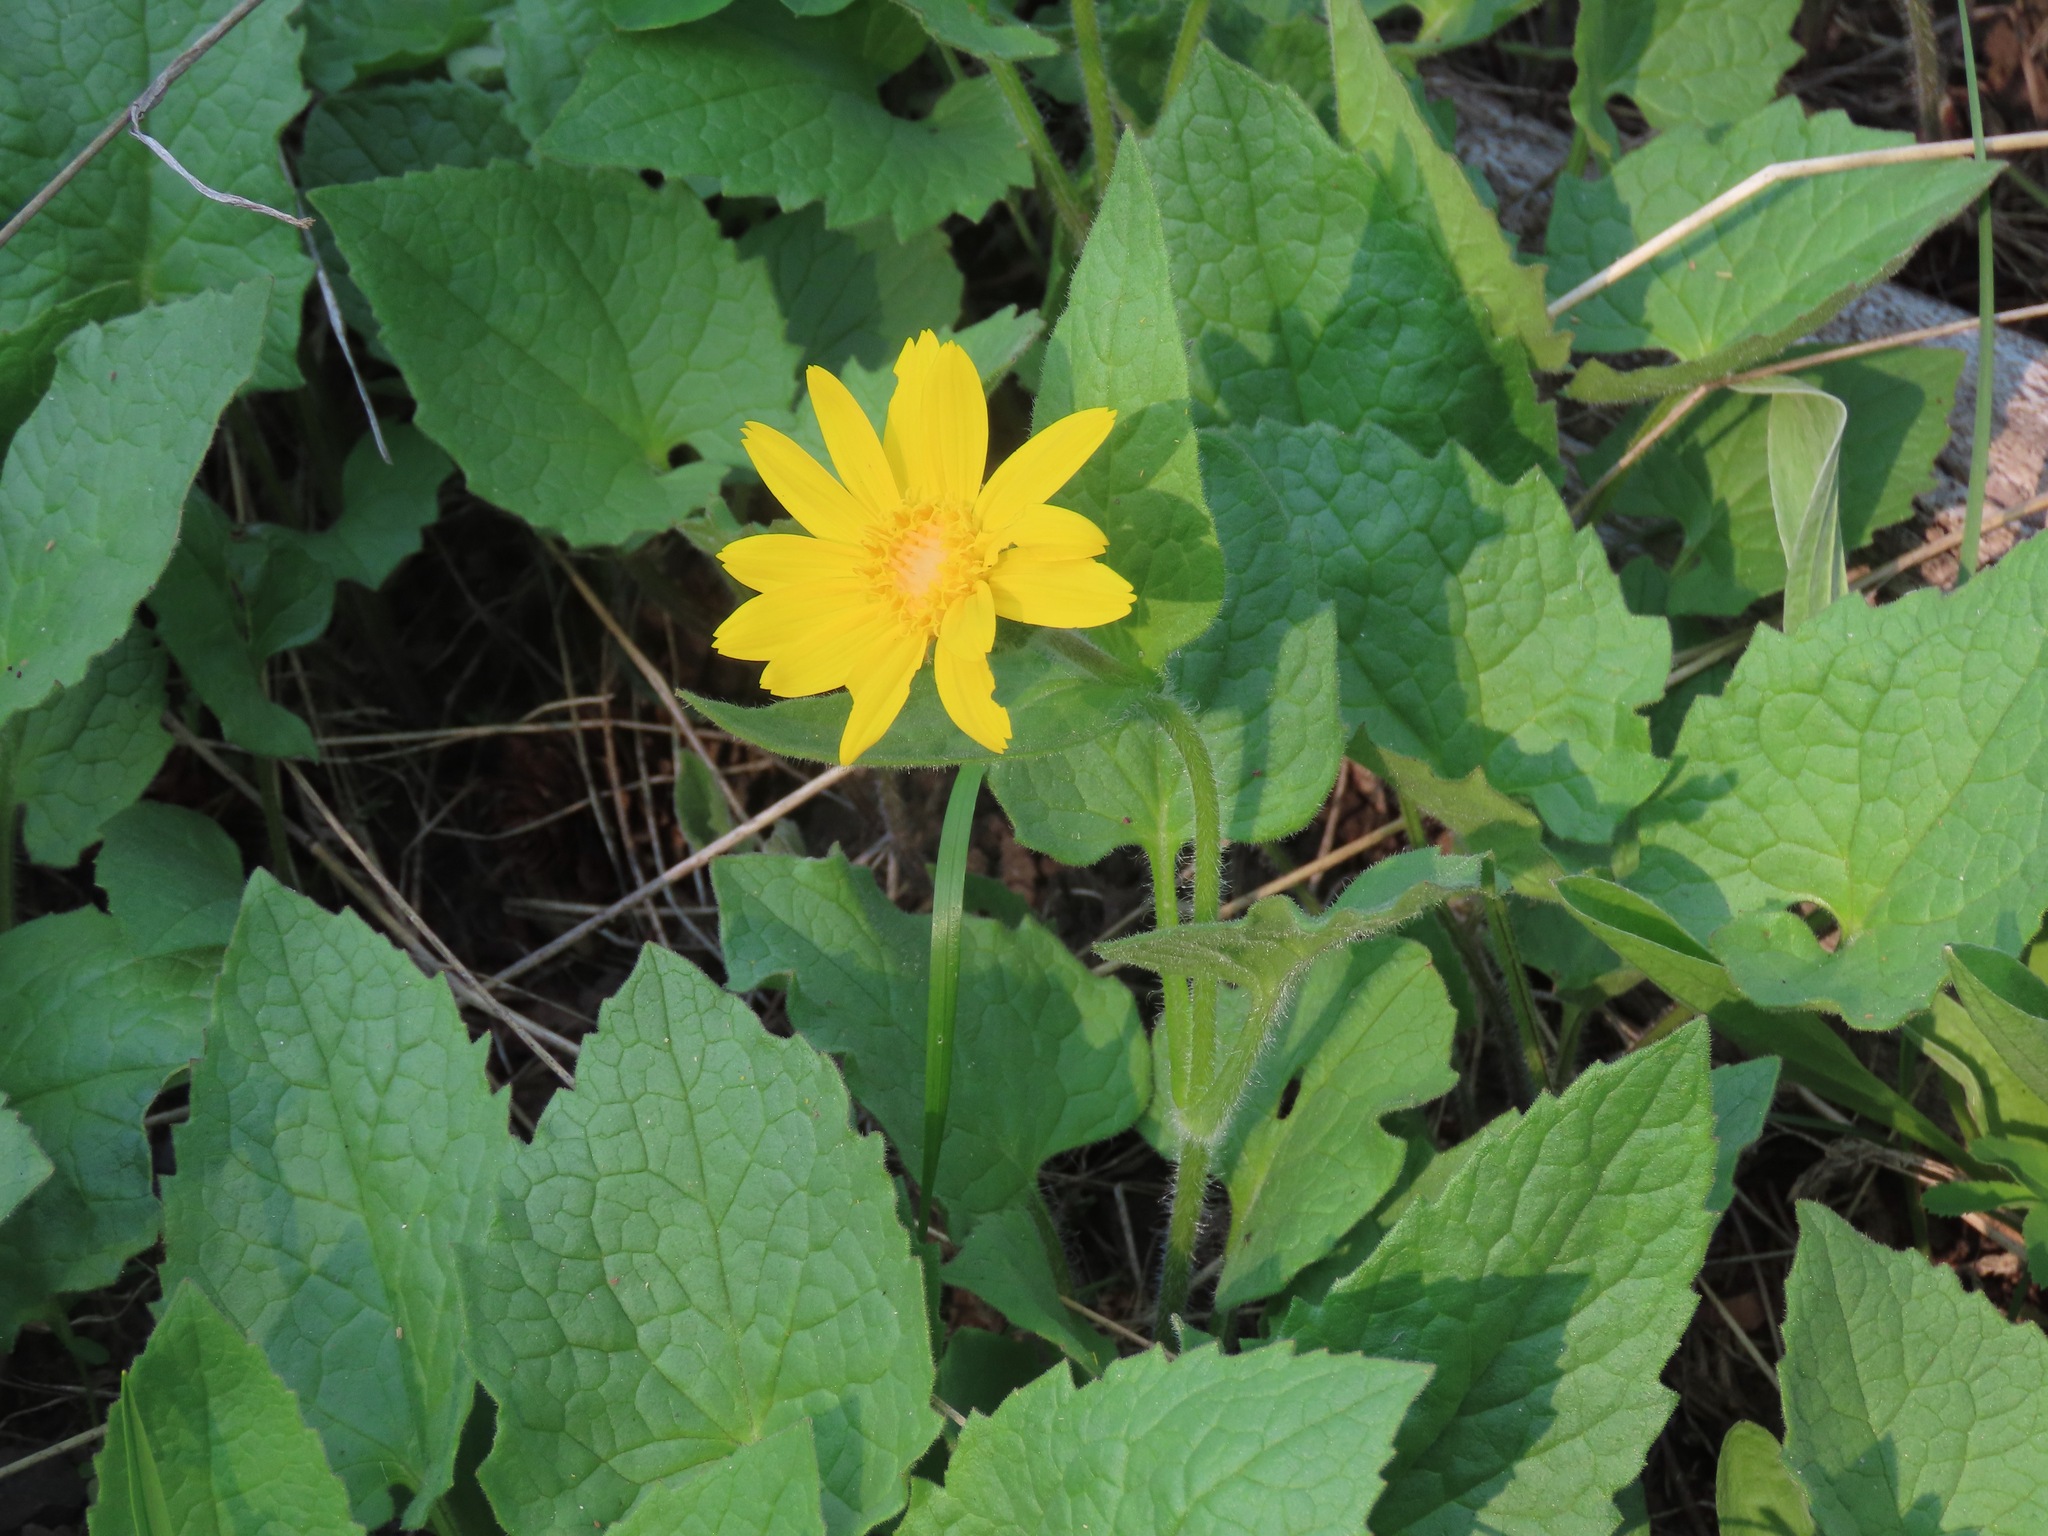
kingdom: Plantae
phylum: Tracheophyta
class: Magnoliopsida
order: Asterales
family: Asteraceae
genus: Arnica
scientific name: Arnica cordifolia
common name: Heart-leaf arnica
